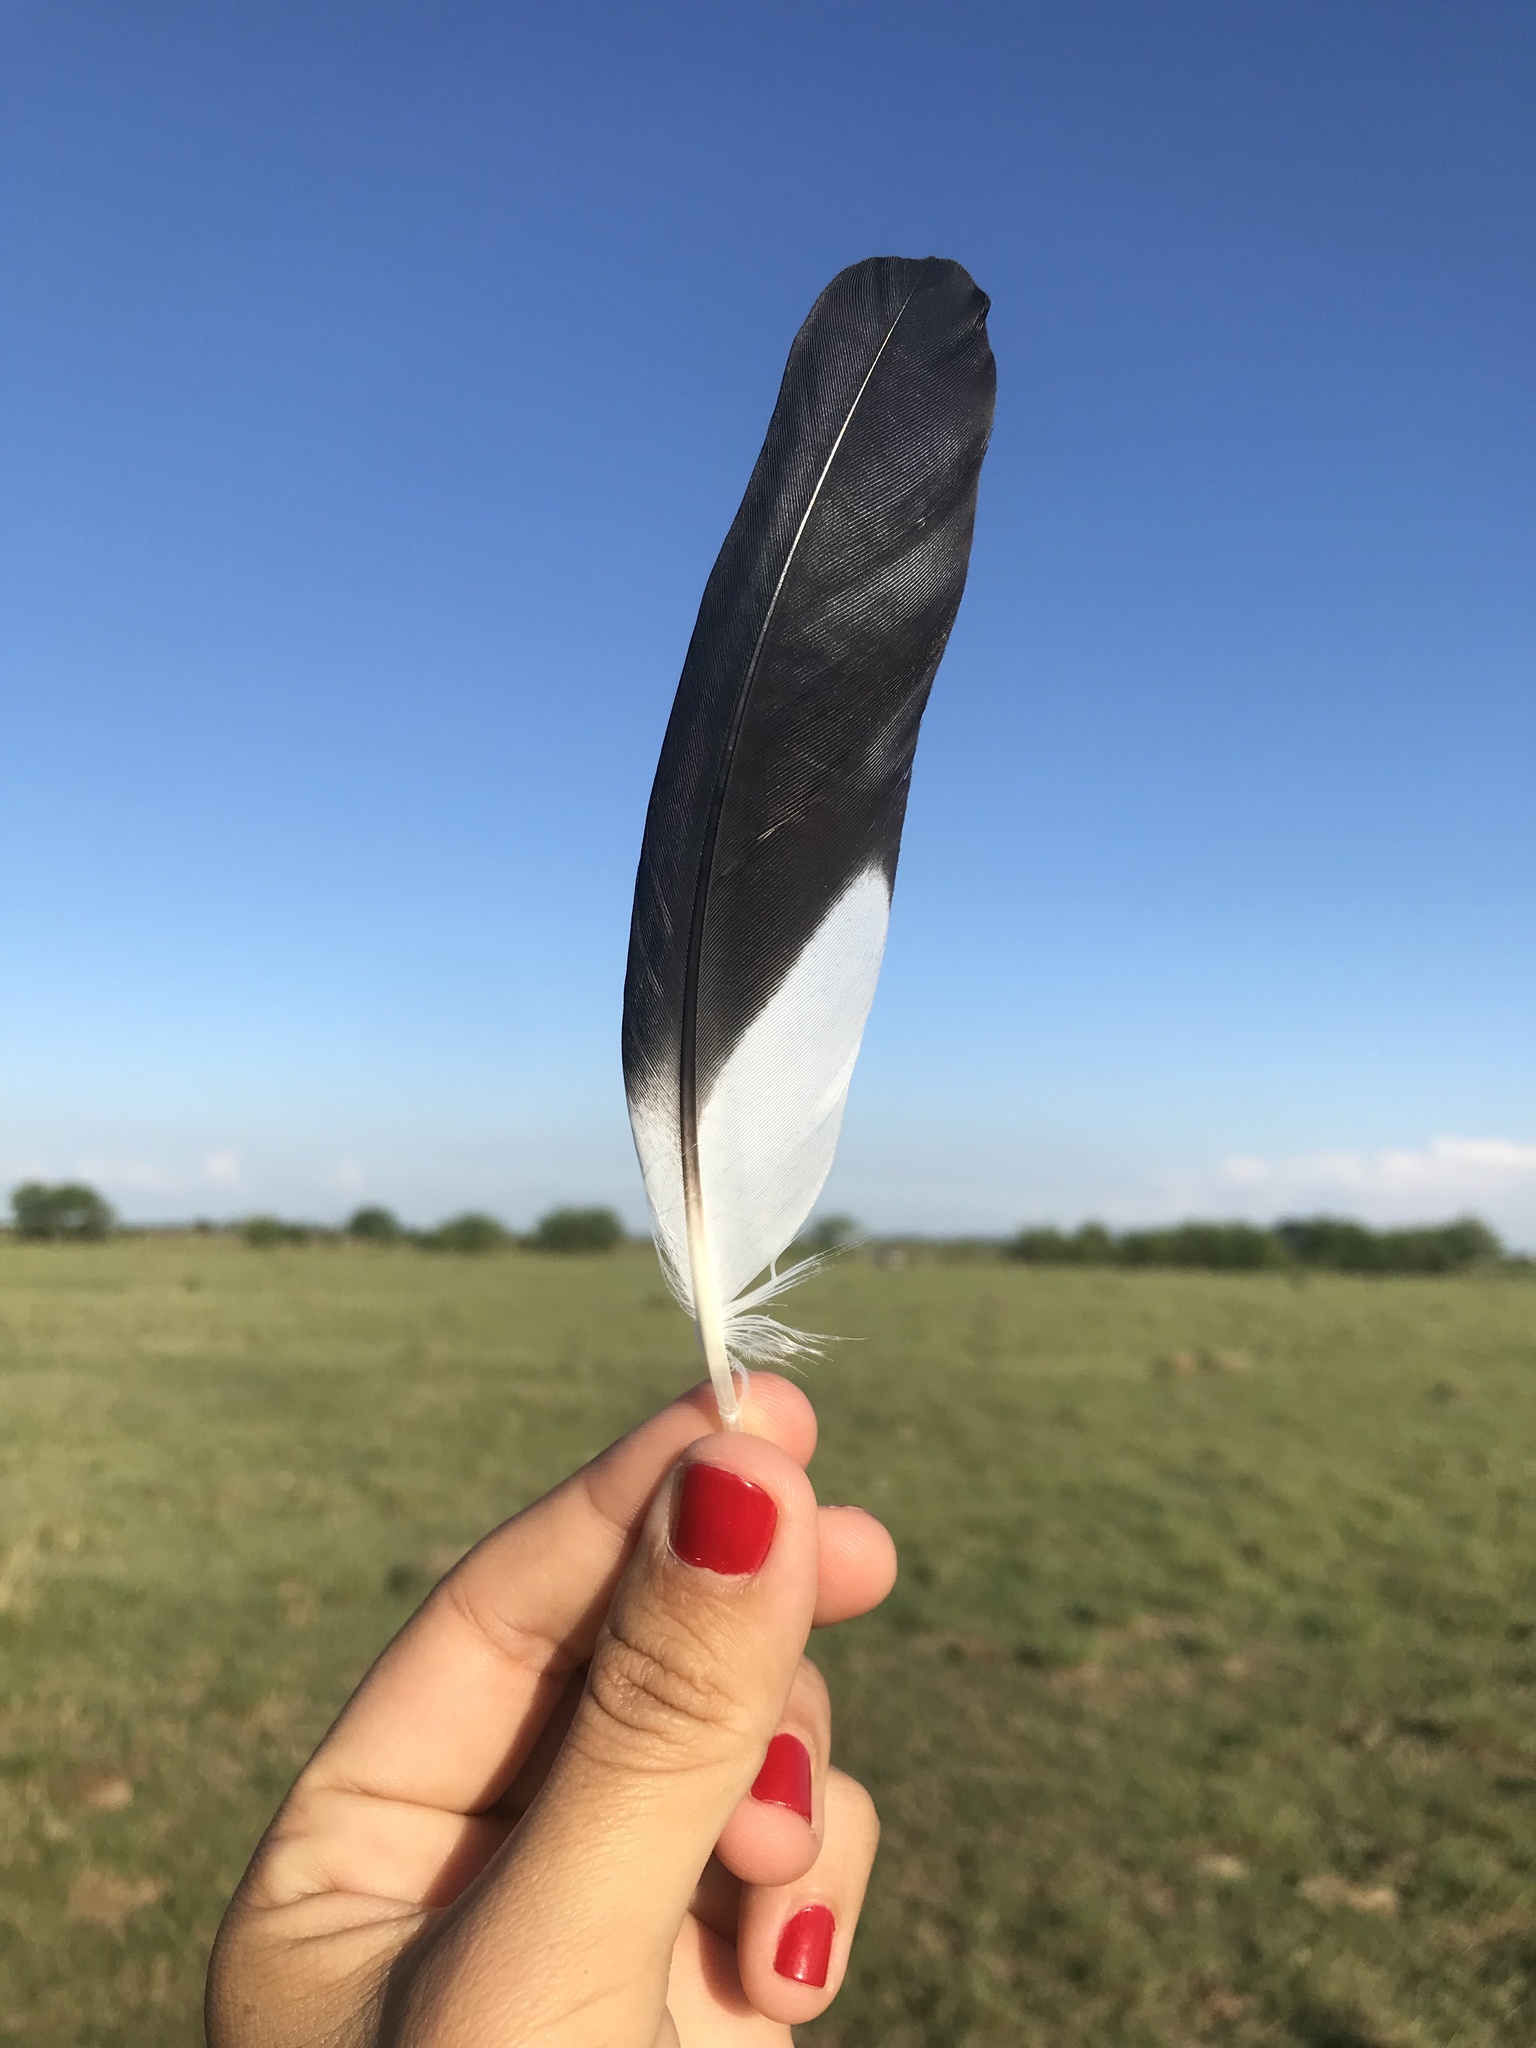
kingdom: Animalia
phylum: Chordata
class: Aves
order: Charadriiformes
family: Charadriidae
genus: Vanellus
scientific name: Vanellus chilensis
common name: Southern lapwing
